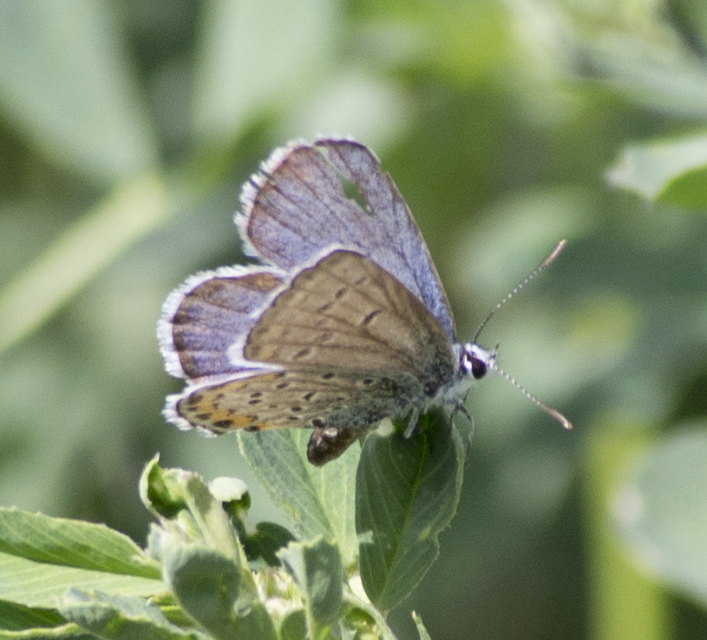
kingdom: Animalia
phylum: Arthropoda
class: Insecta
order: Lepidoptera
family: Lycaenidae
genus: Icaricia
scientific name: Icaricia lupini
